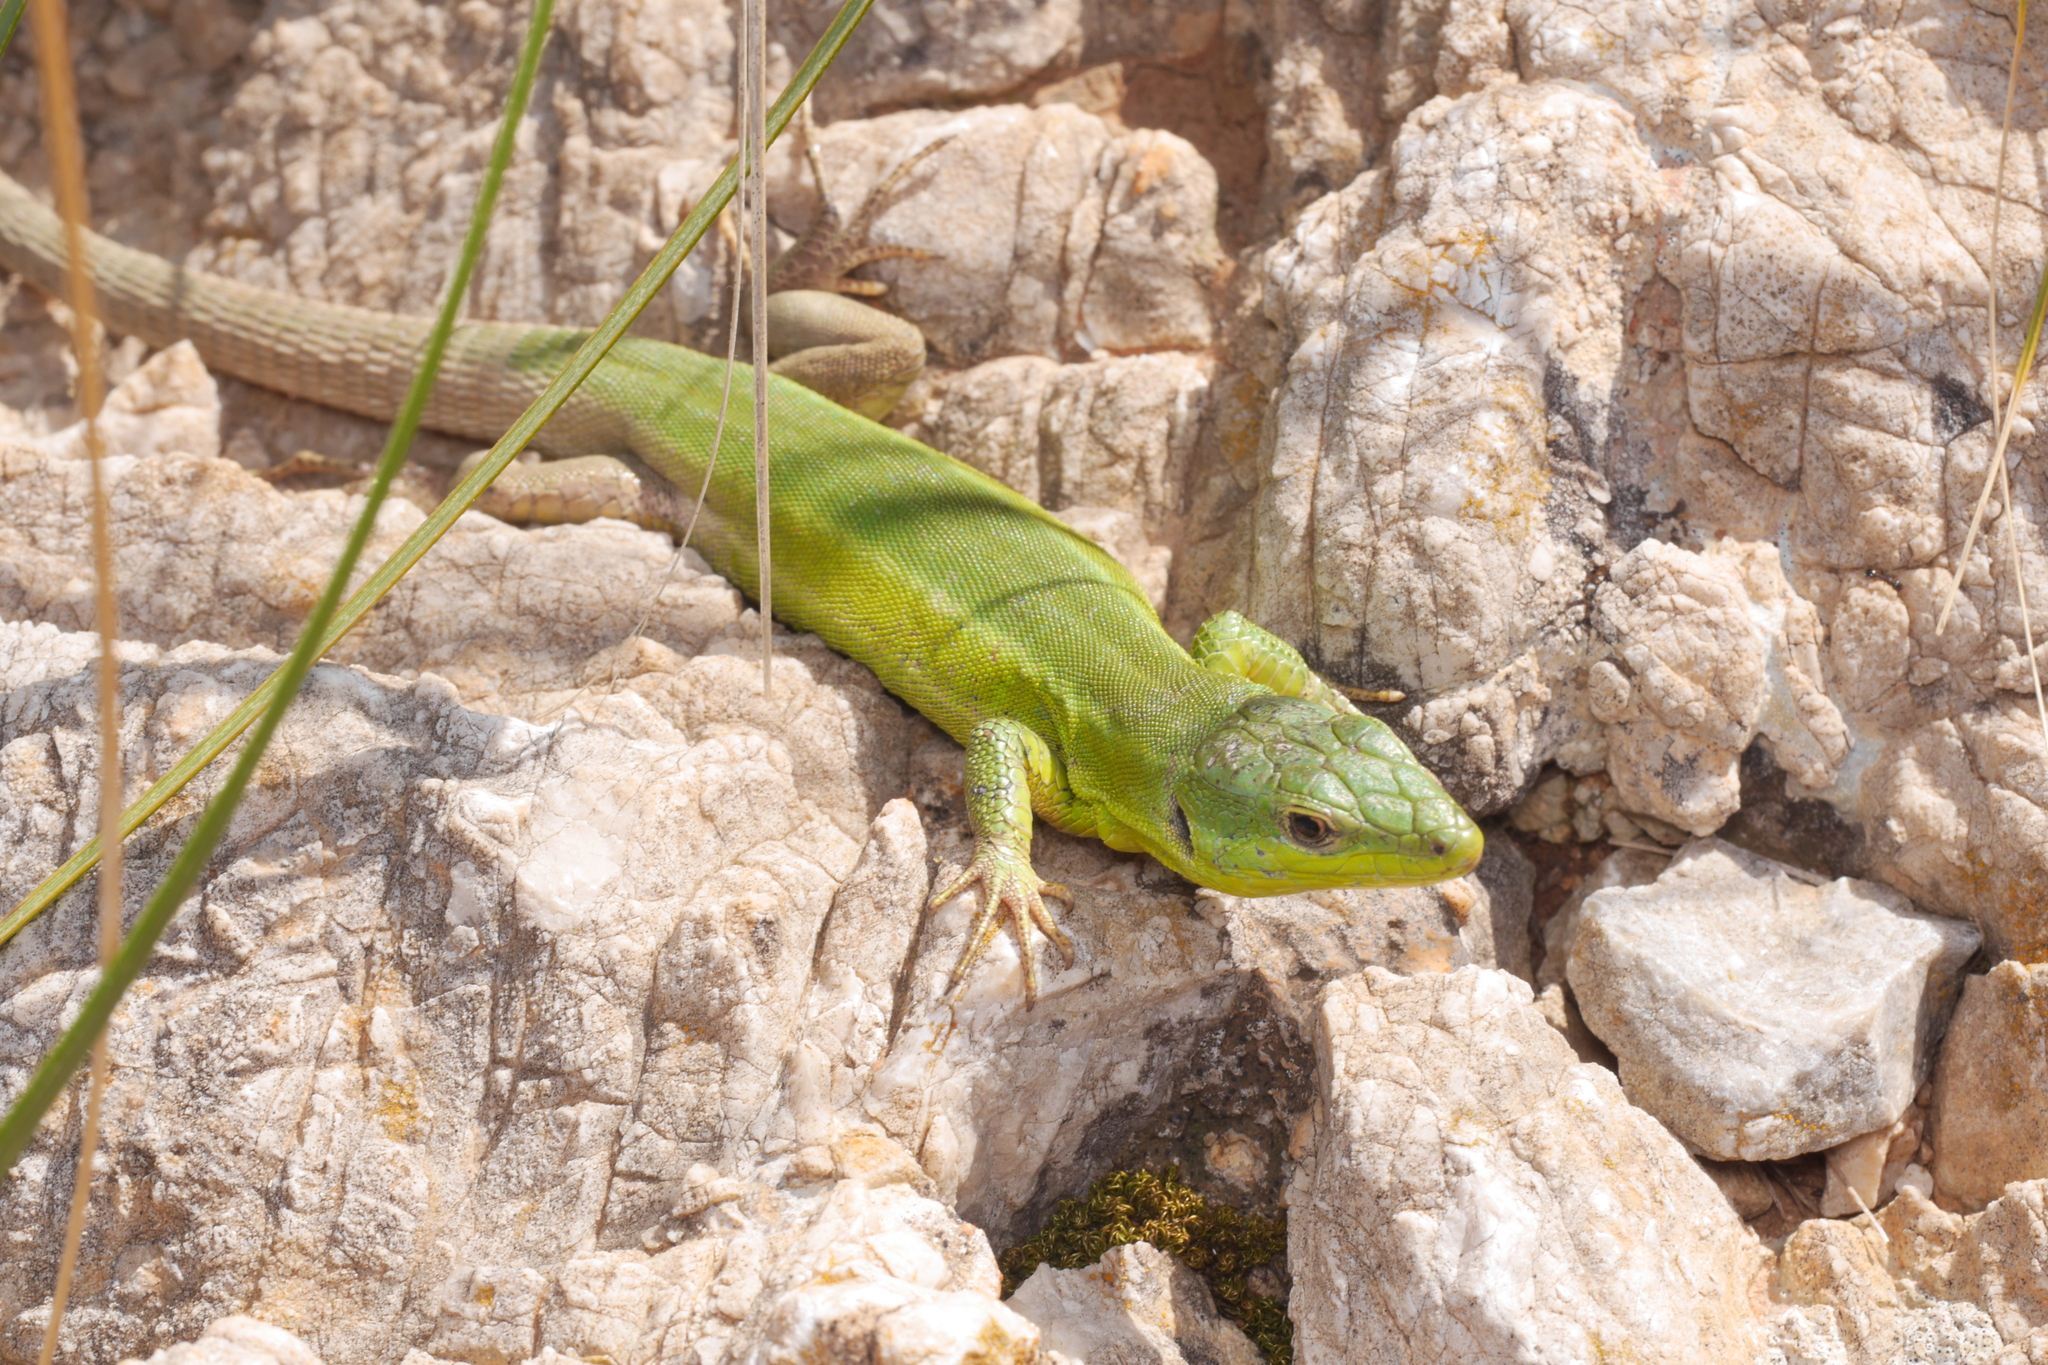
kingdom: Animalia
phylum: Chordata
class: Squamata
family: Lacertidae
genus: Podarcis
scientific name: Podarcis waglerianus
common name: Sicilian wall lizard
